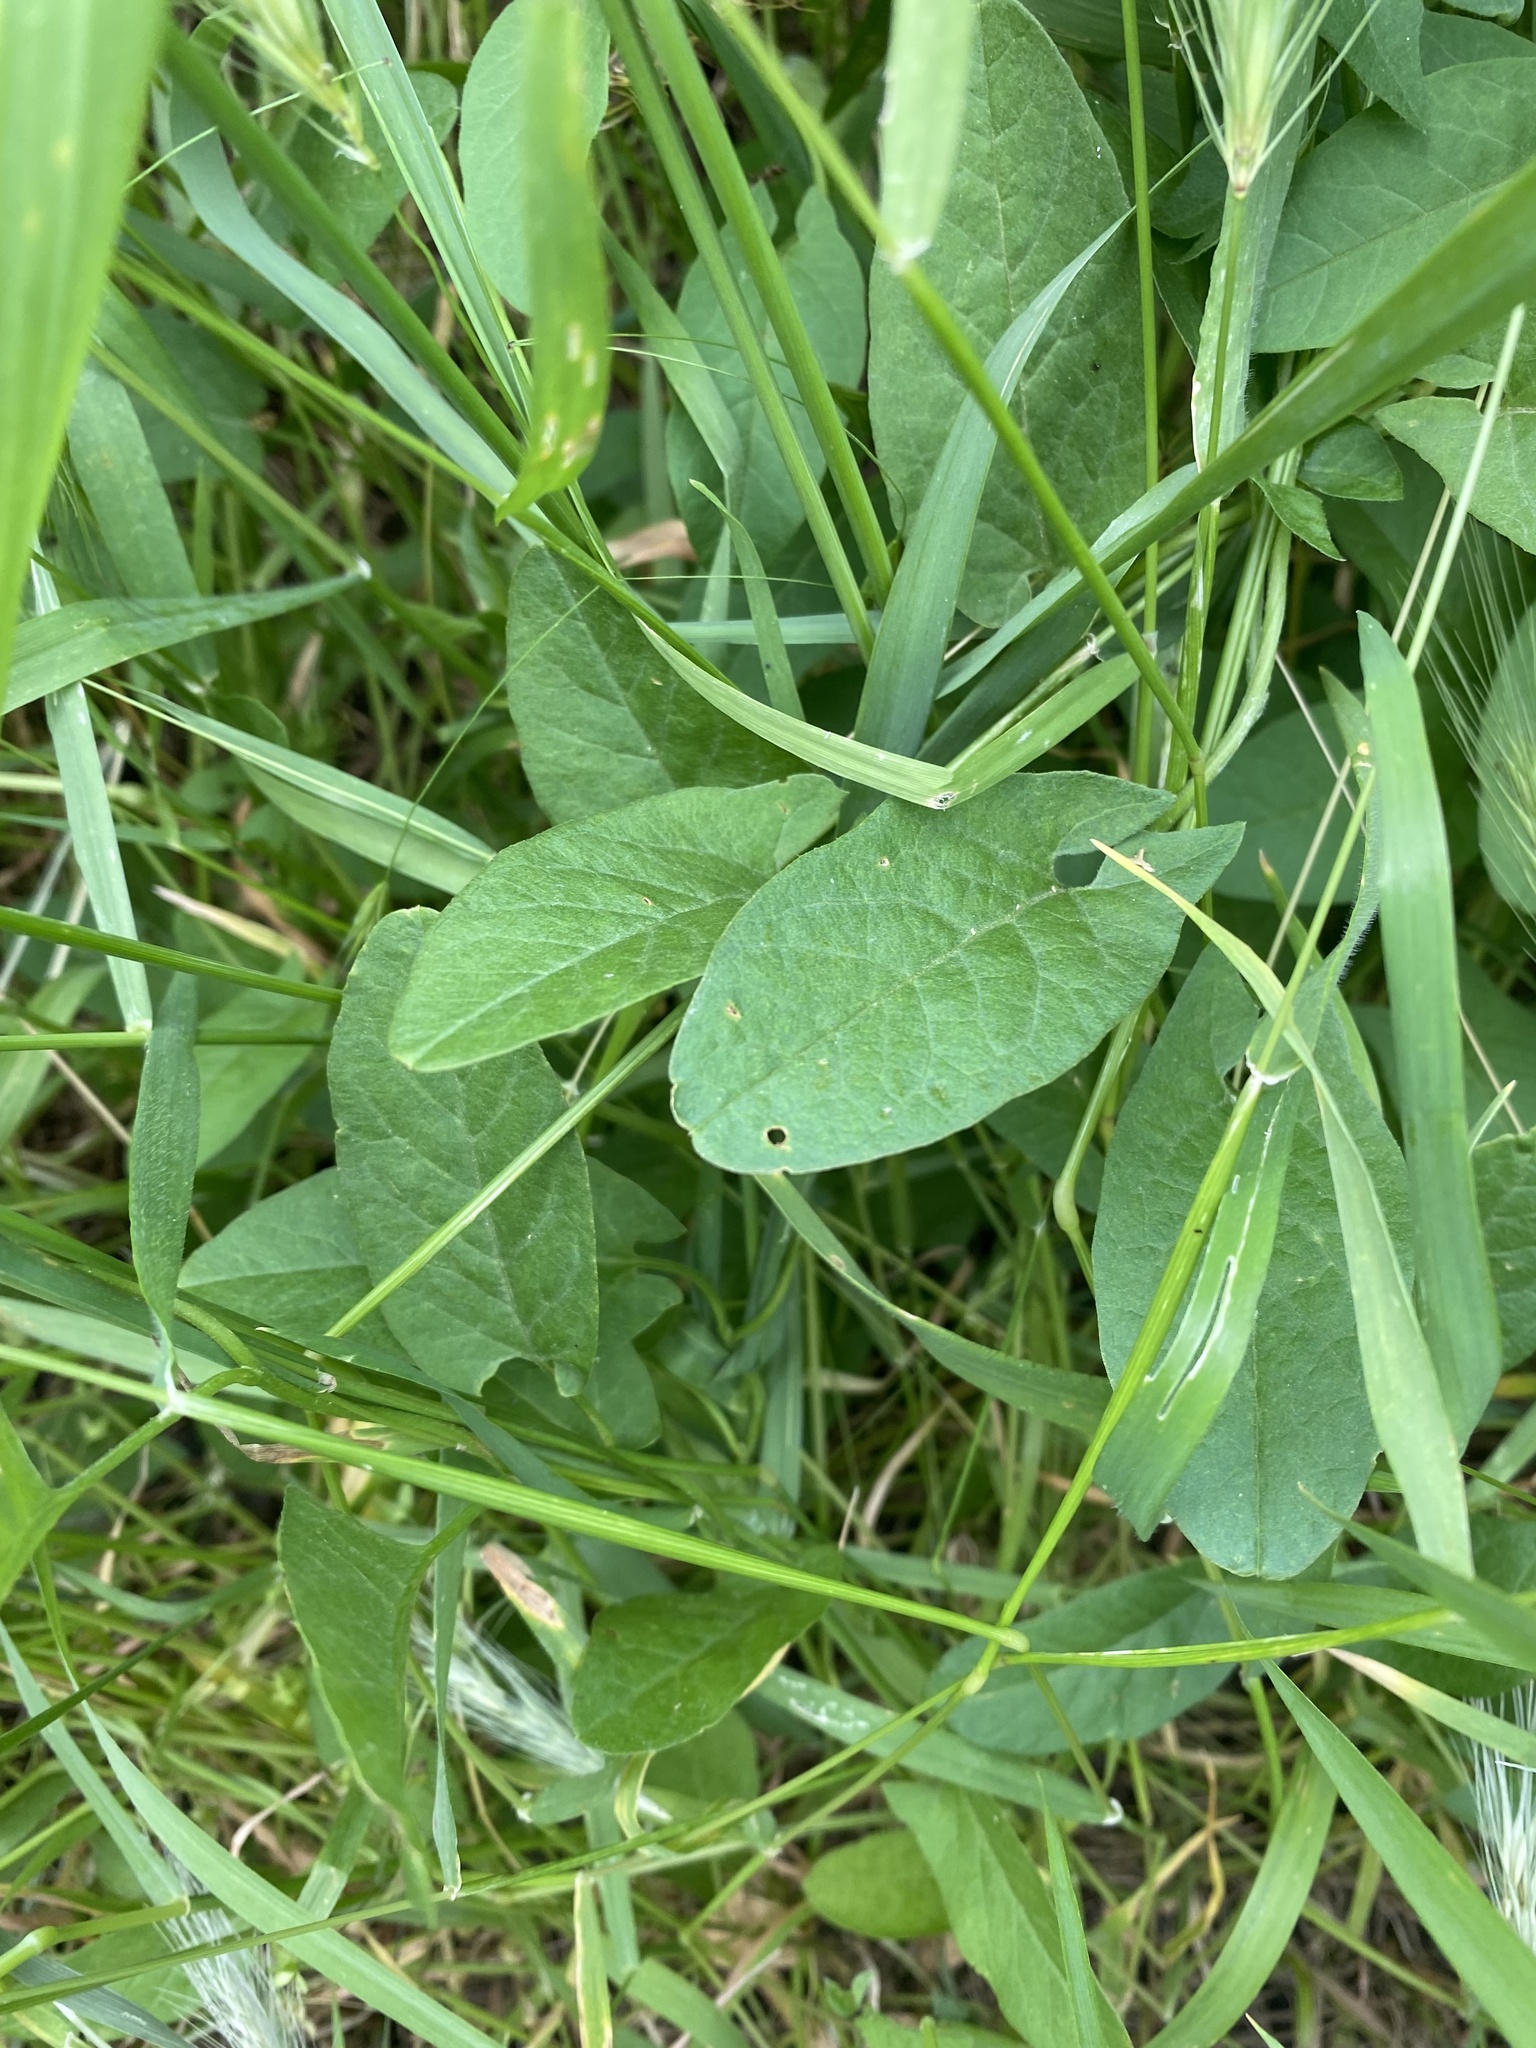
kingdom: Plantae
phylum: Tracheophyta
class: Magnoliopsida
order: Solanales
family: Convolvulaceae
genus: Convolvulus
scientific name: Convolvulus arvensis
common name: Field bindweed
